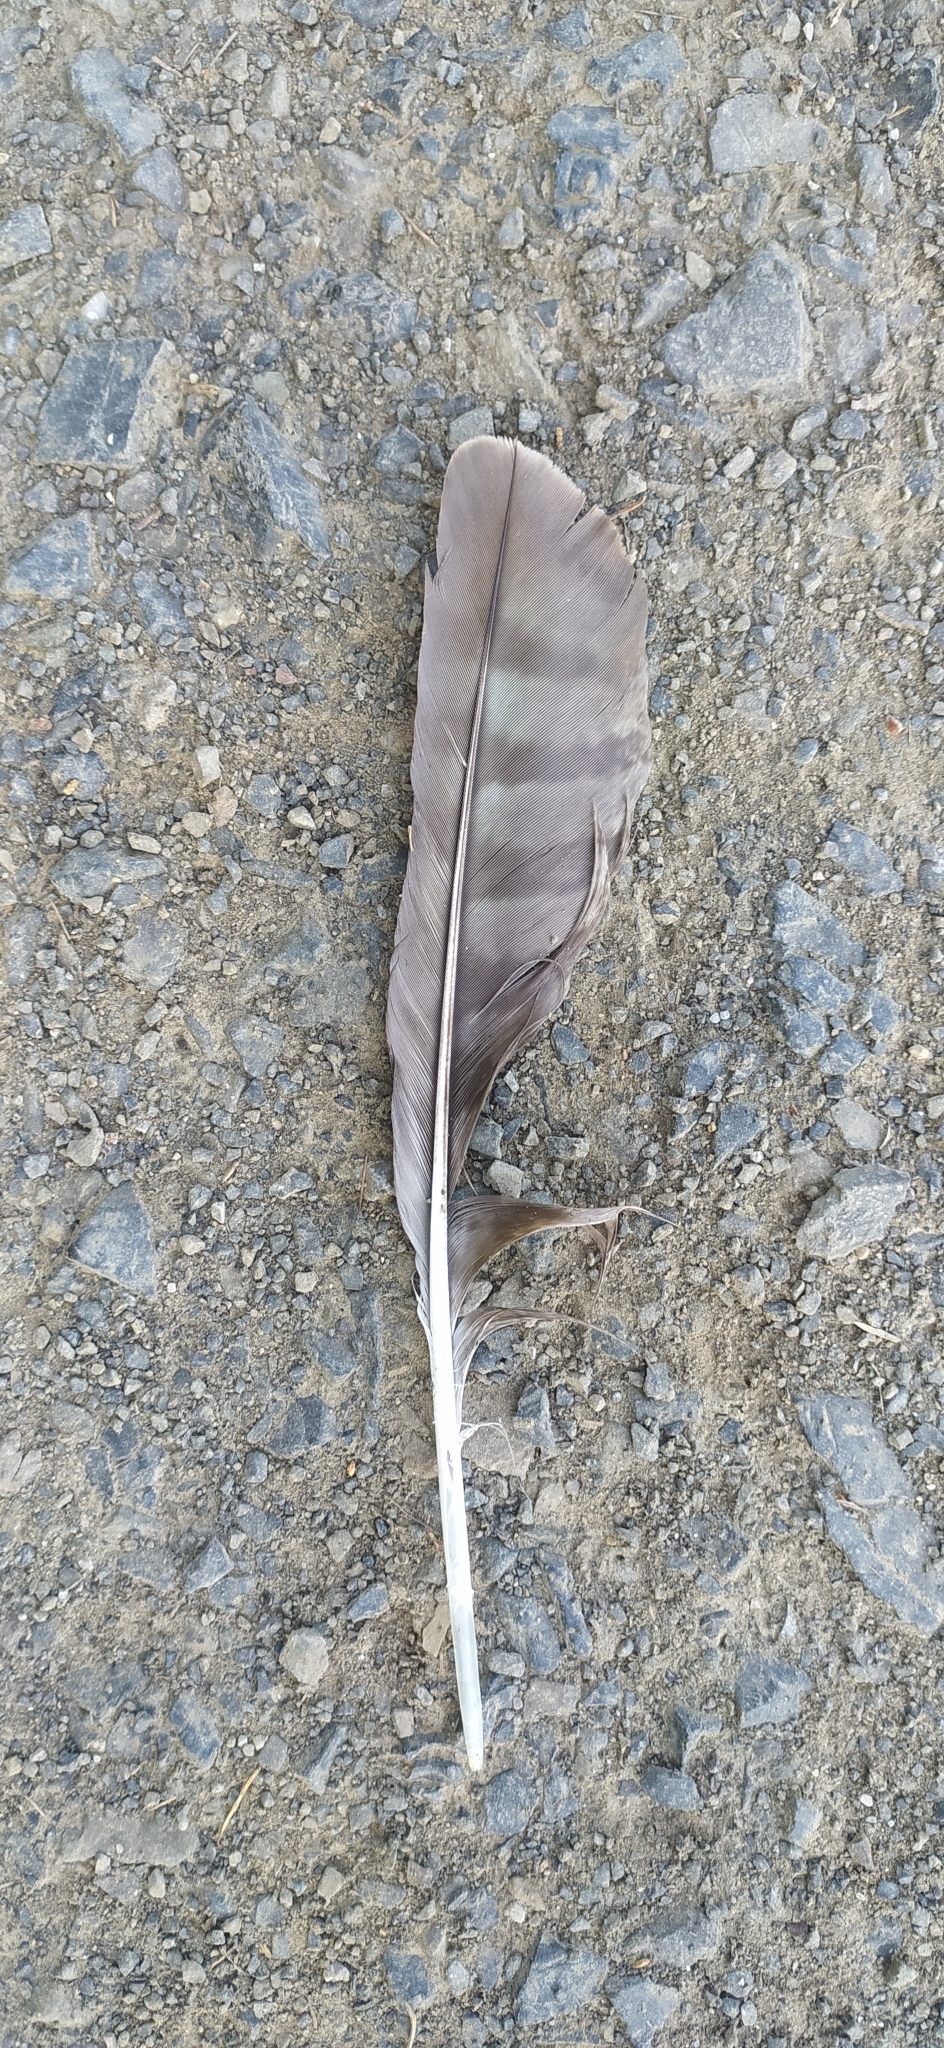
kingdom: Animalia
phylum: Chordata
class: Aves
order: Accipitriformes
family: Accipitridae
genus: Milvus
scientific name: Milvus migrans
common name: Black kite
